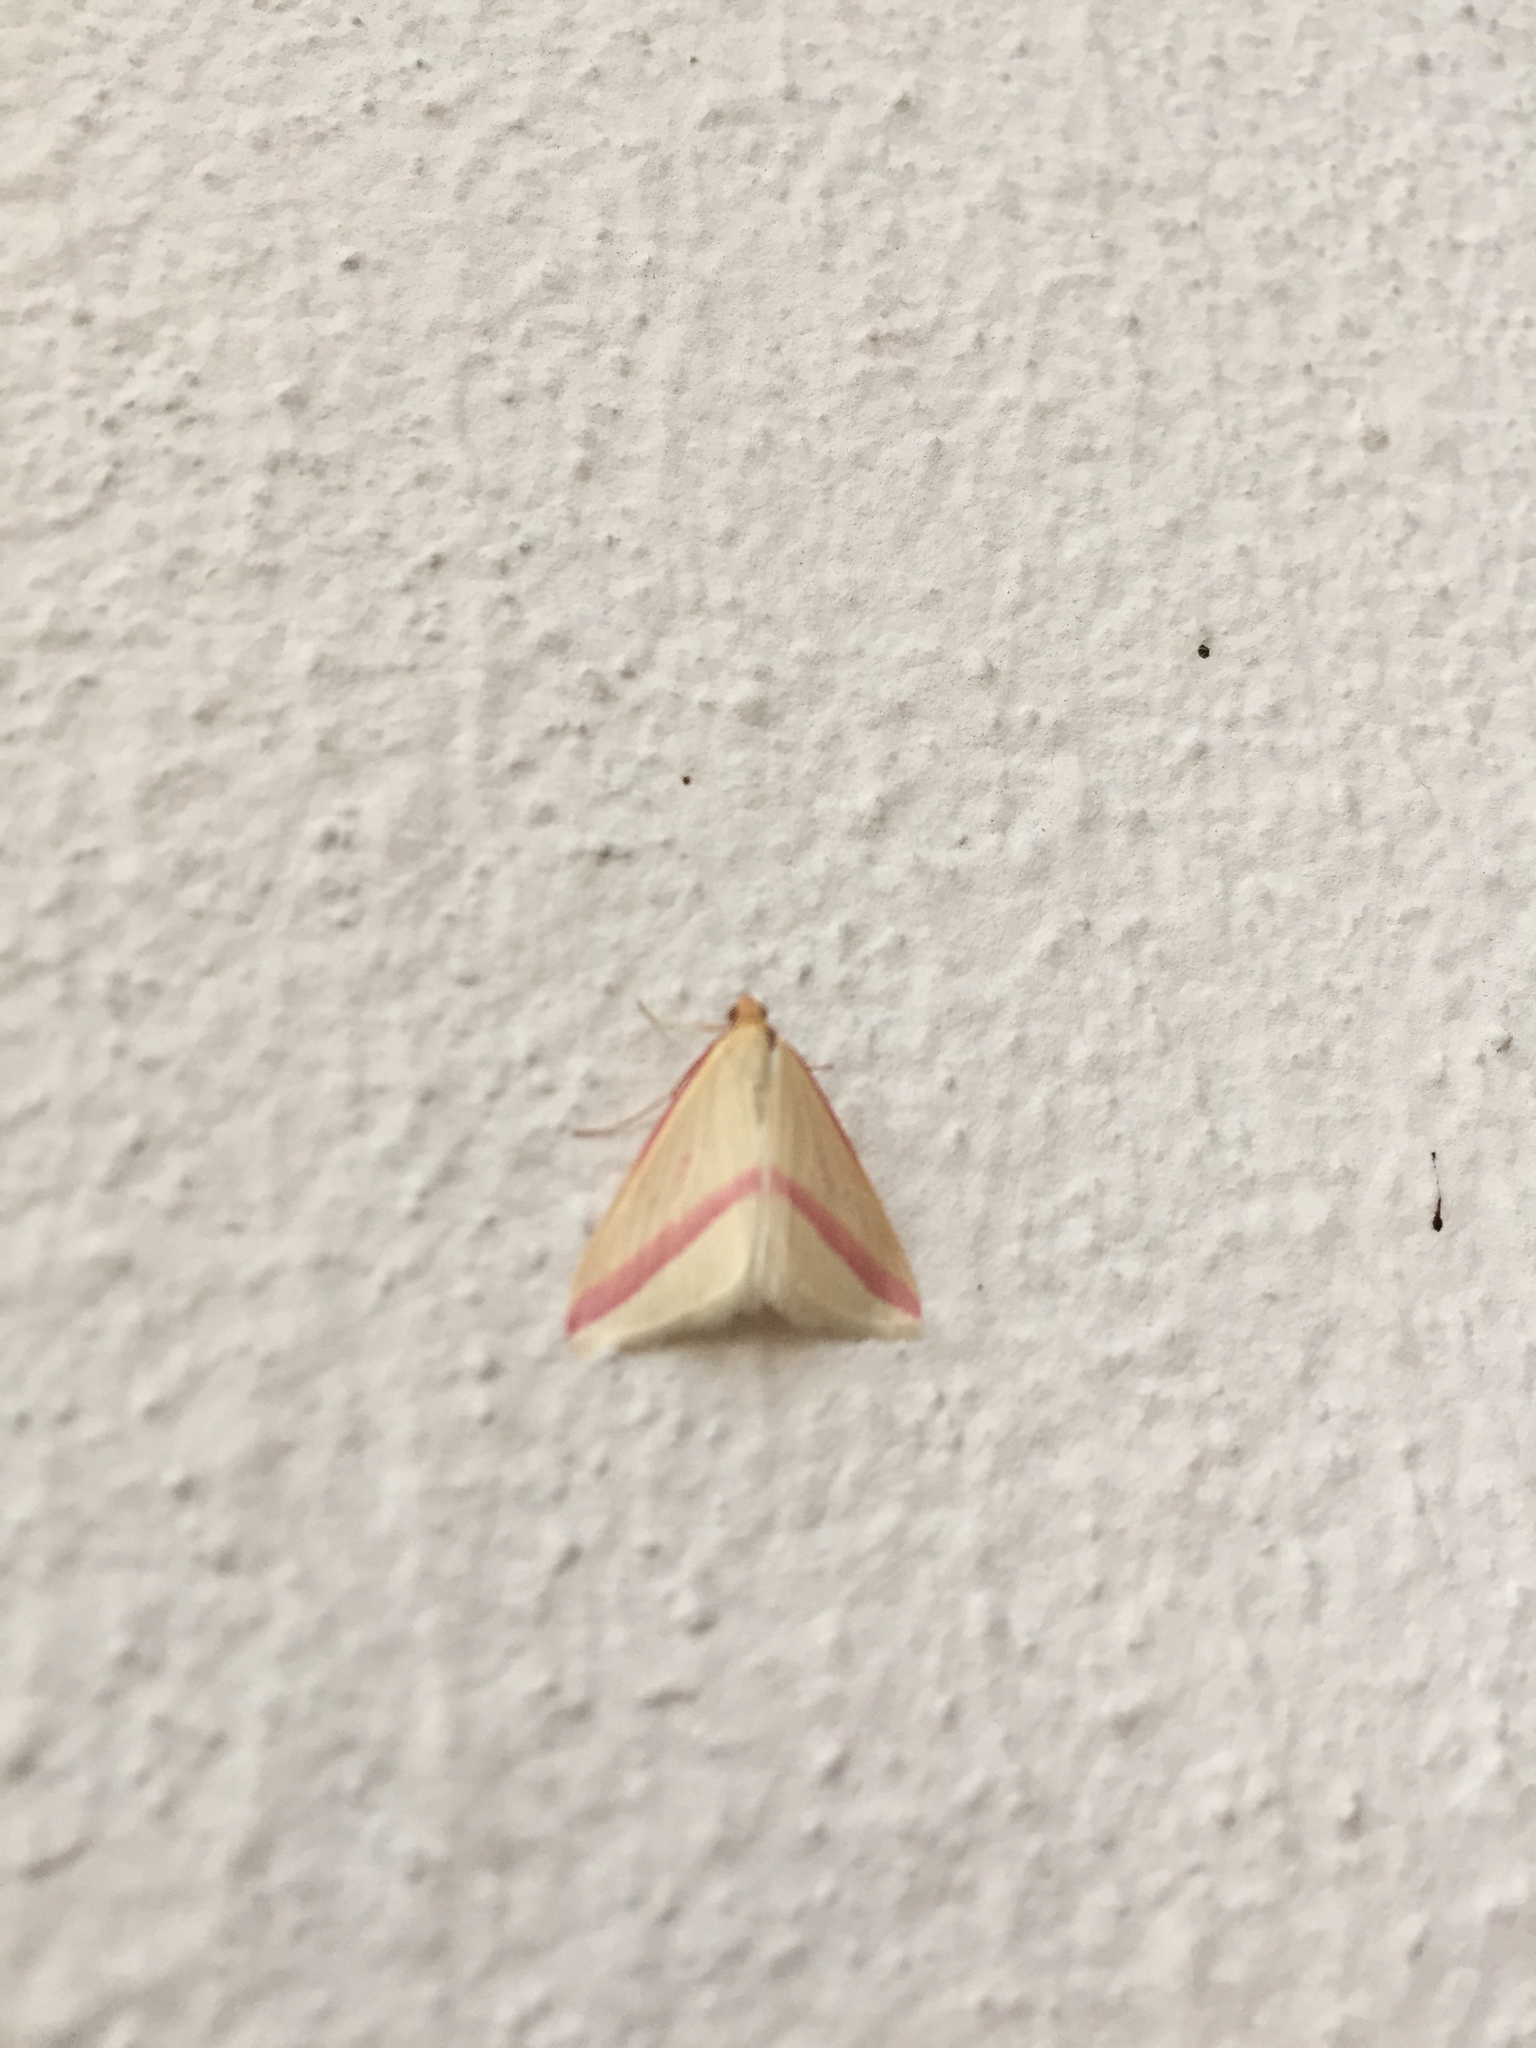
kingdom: Animalia
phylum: Arthropoda
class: Insecta
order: Lepidoptera
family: Geometridae
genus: Rhodometra
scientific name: Rhodometra sacraria
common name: Vestal
